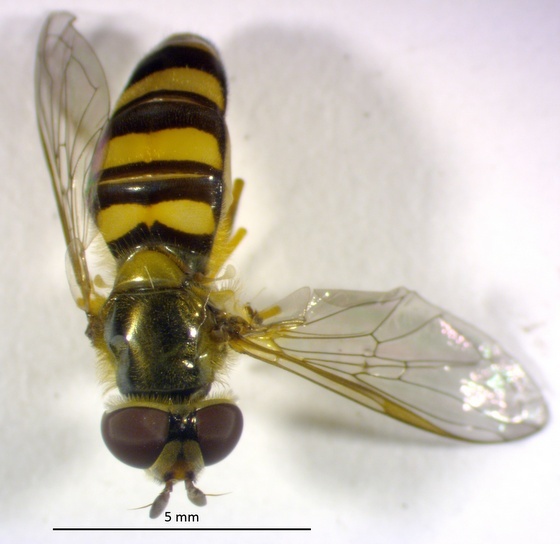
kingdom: Animalia
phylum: Arthropoda
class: Insecta
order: Diptera
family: Syrphidae
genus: Eupeodes
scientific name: Eupeodes
